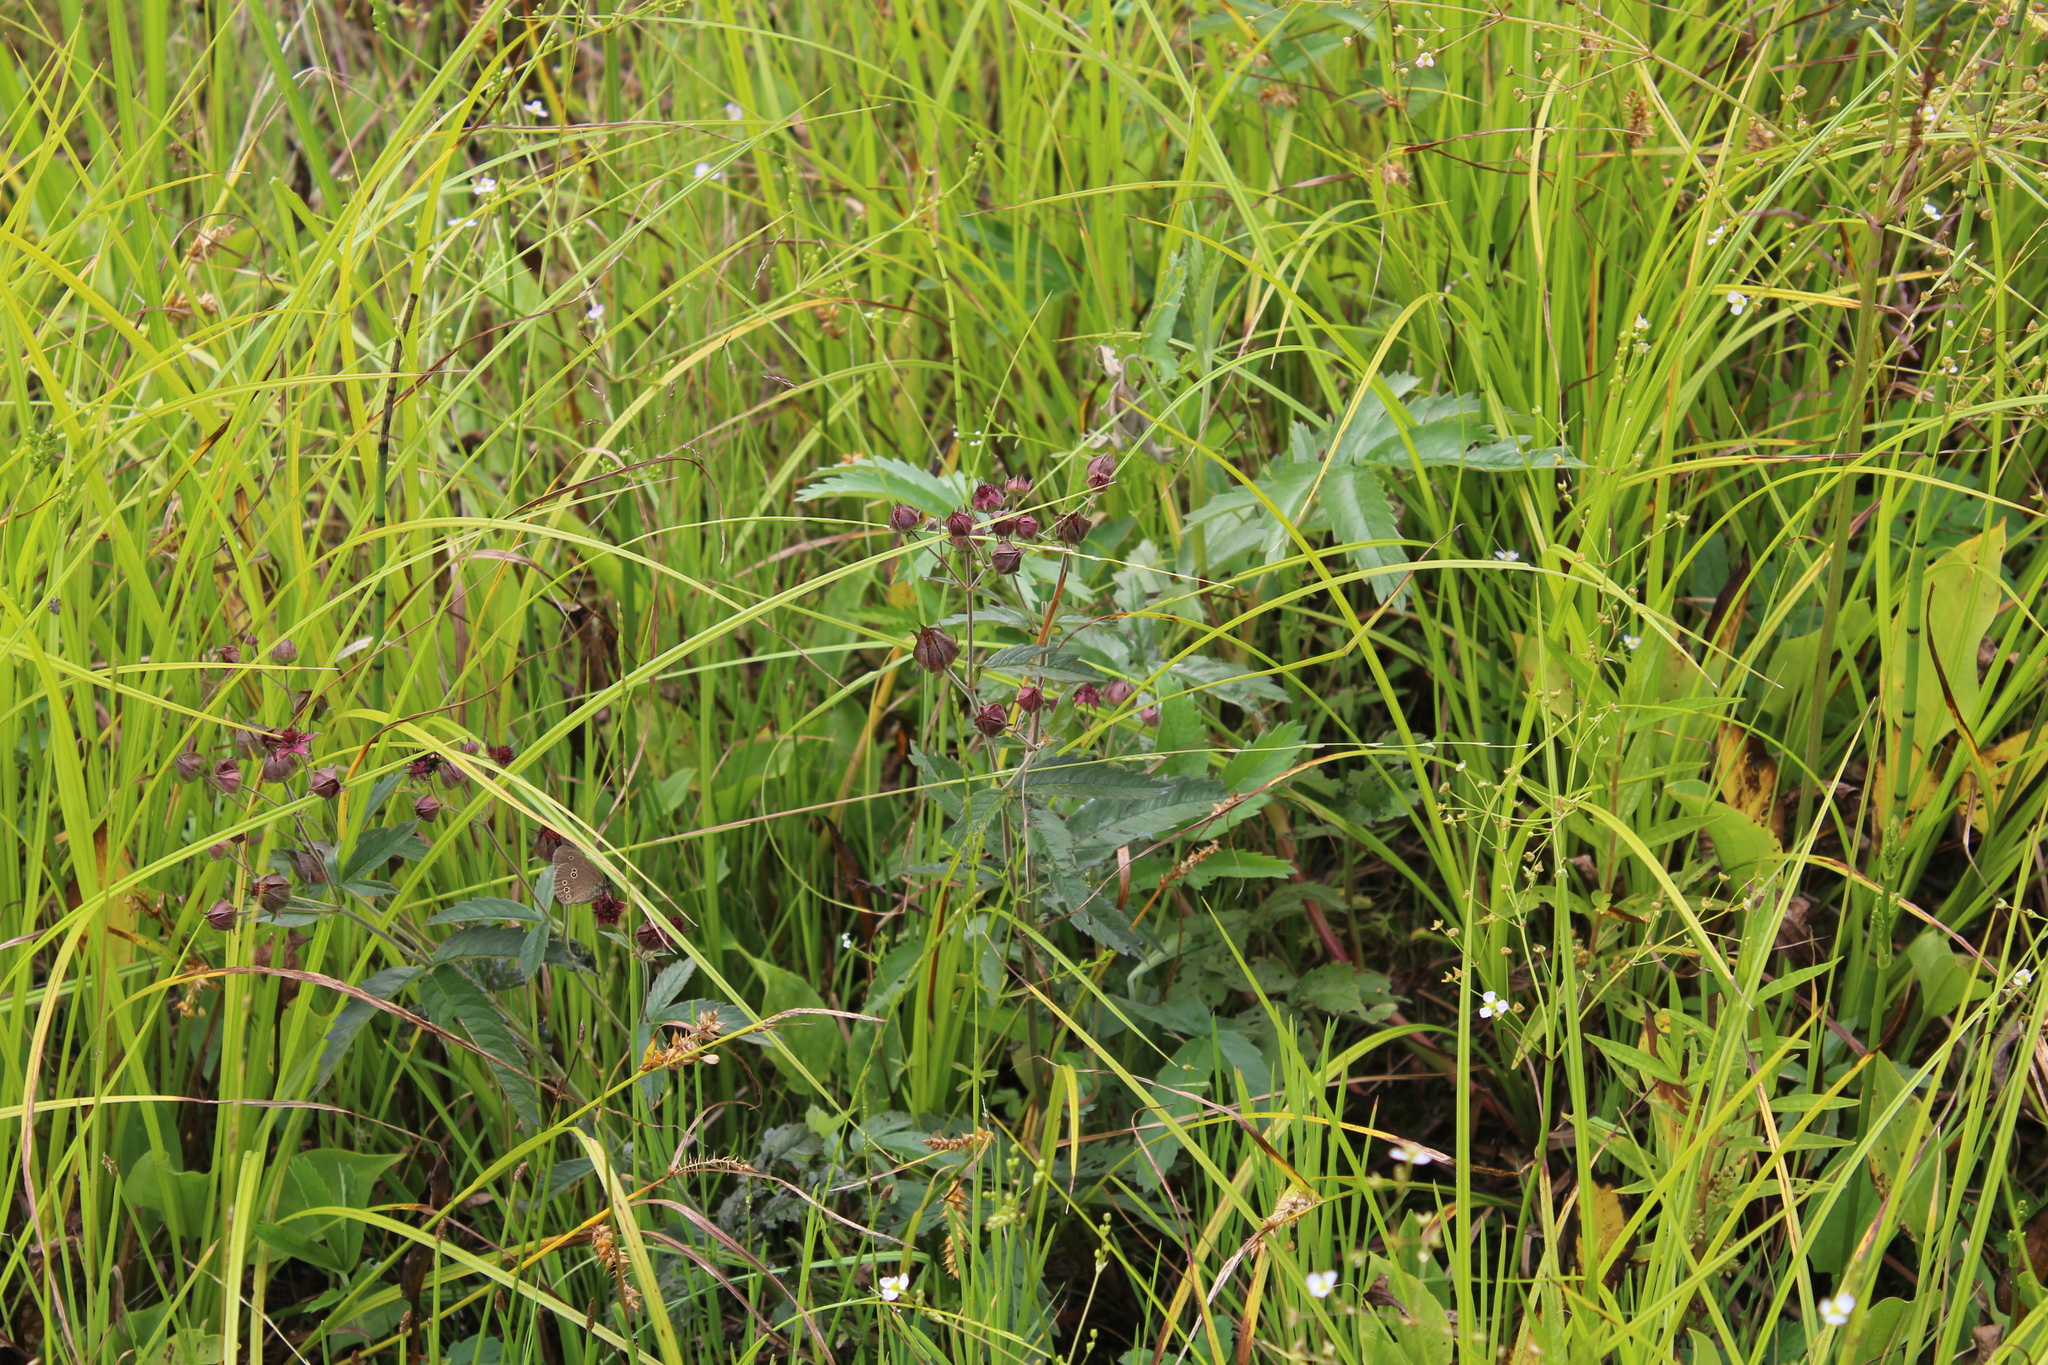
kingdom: Plantae
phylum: Tracheophyta
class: Magnoliopsida
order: Rosales
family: Rosaceae
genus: Comarum
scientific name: Comarum palustre
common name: Marsh cinquefoil
